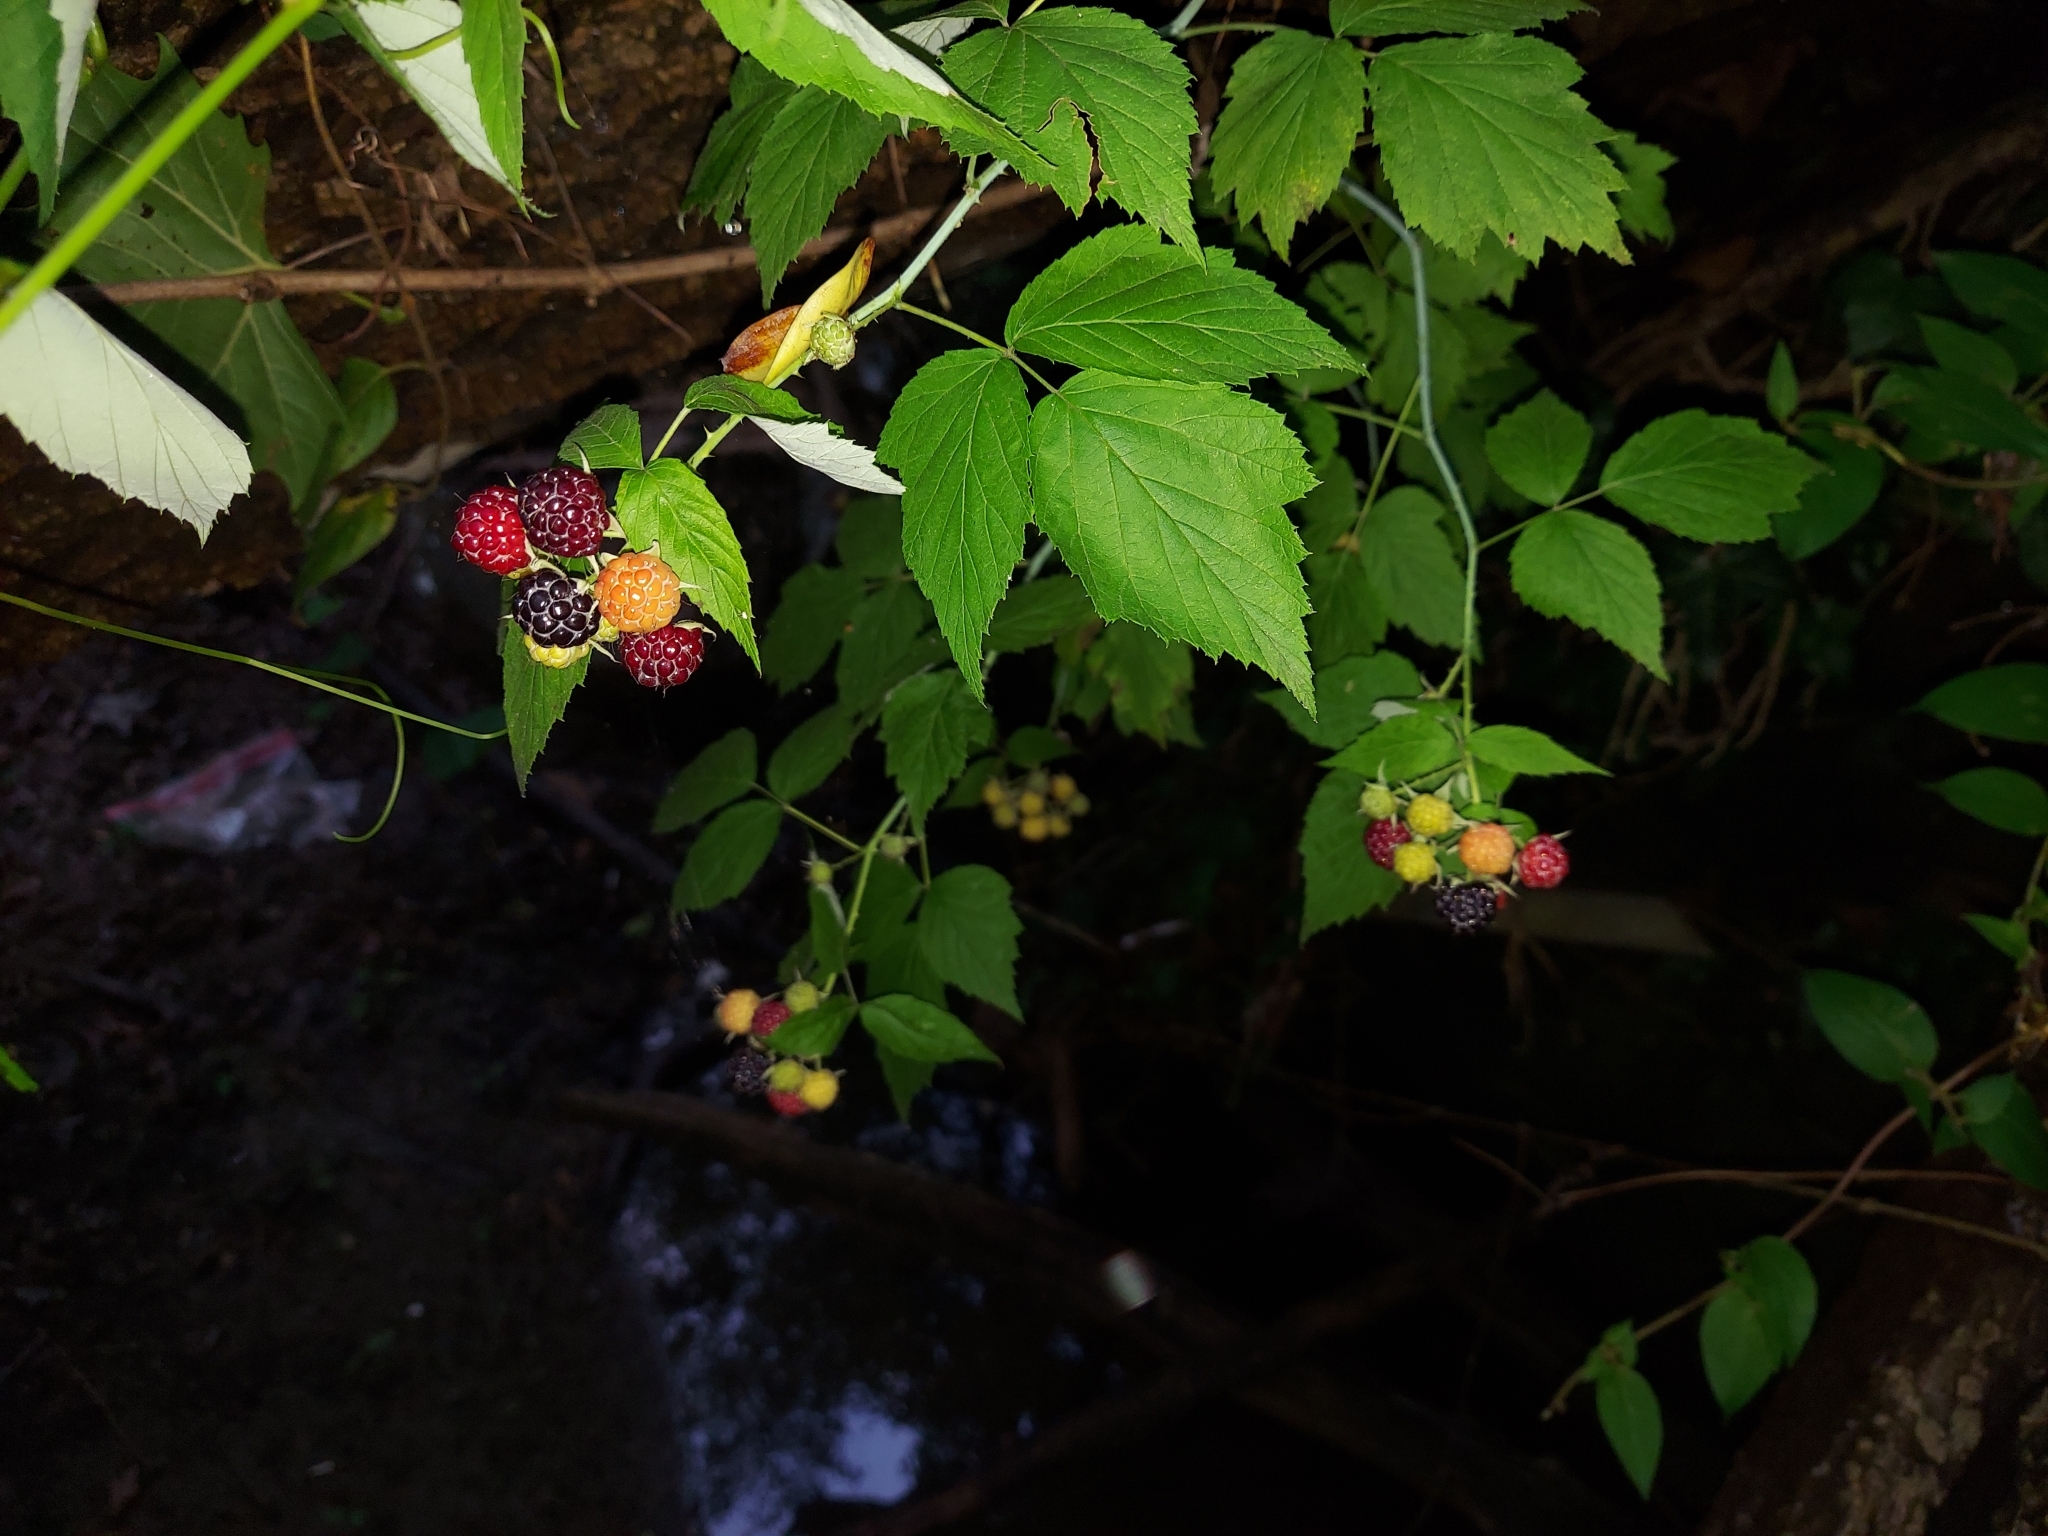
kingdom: Plantae
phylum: Tracheophyta
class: Magnoliopsida
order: Rosales
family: Rosaceae
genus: Rubus
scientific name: Rubus occidentalis
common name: Black raspberry
